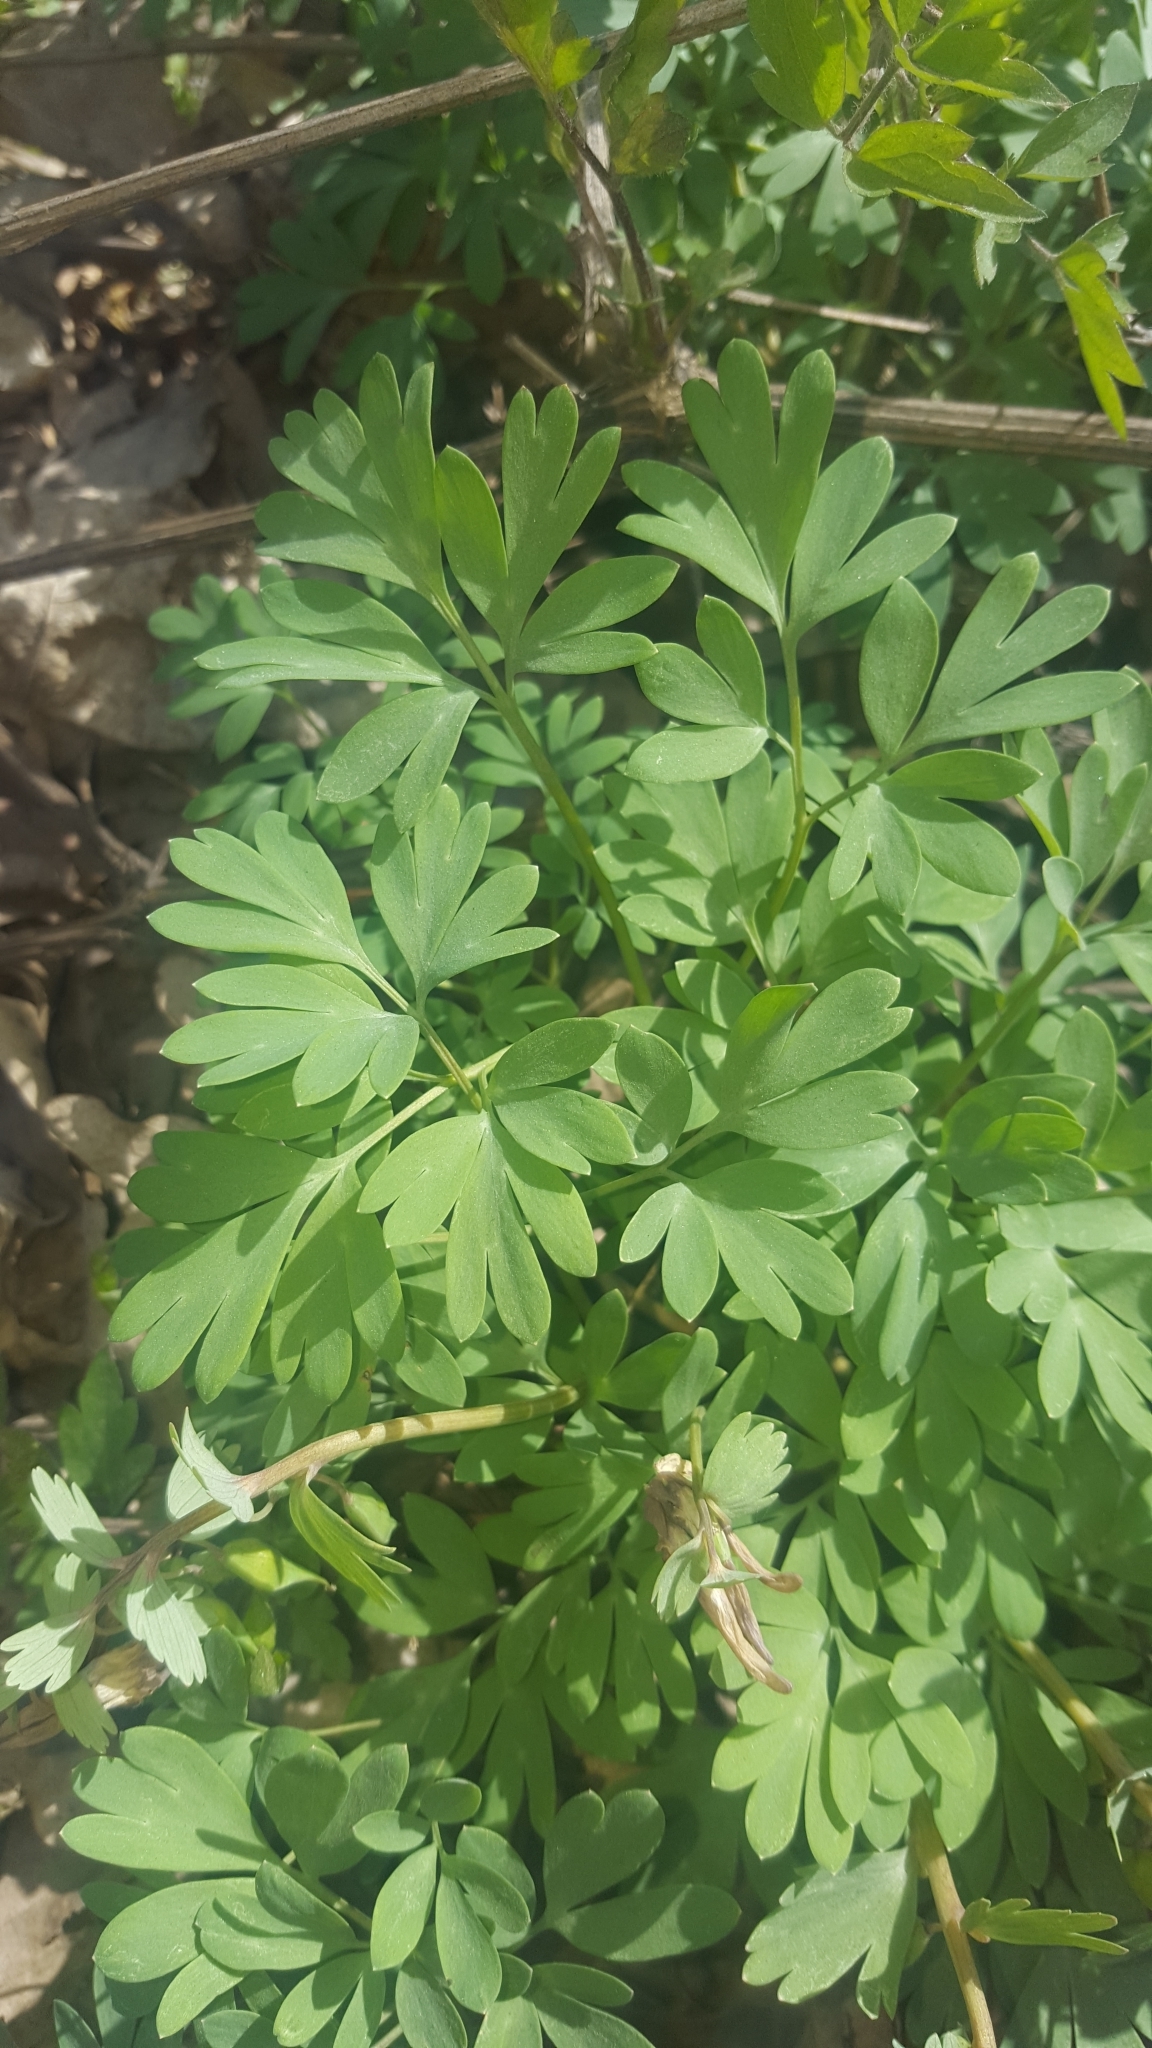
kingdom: Plantae
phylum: Tracheophyta
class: Magnoliopsida
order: Ranunculales
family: Papaveraceae
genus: Corydalis
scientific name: Corydalis solida
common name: Bird-in-a-bush
